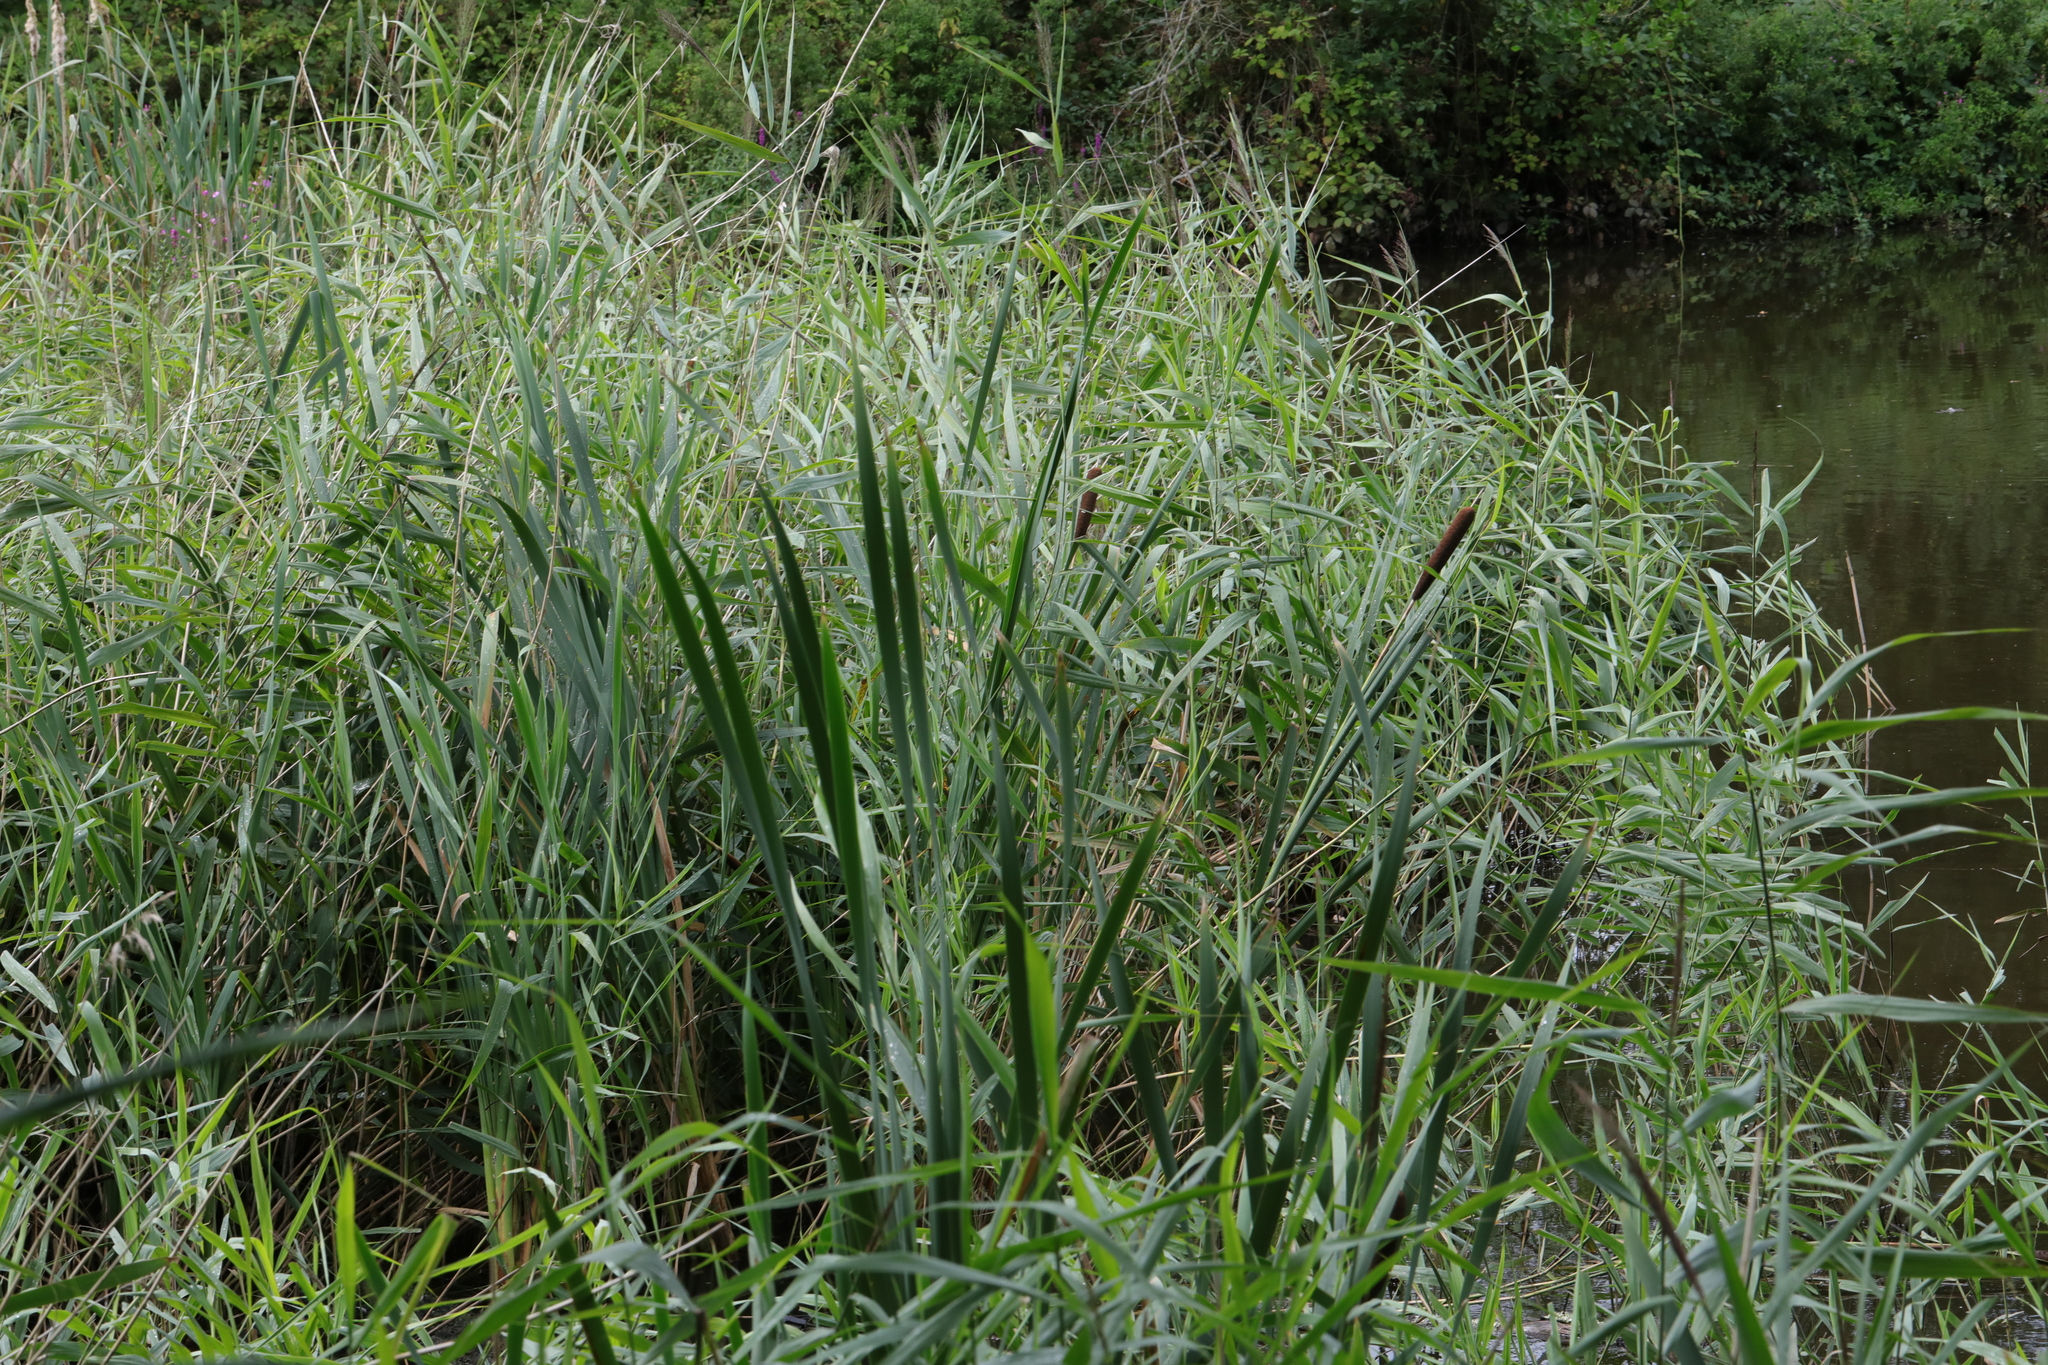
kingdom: Plantae
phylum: Tracheophyta
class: Liliopsida
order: Poales
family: Poaceae
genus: Phragmites
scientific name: Phragmites australis
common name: Common reed
